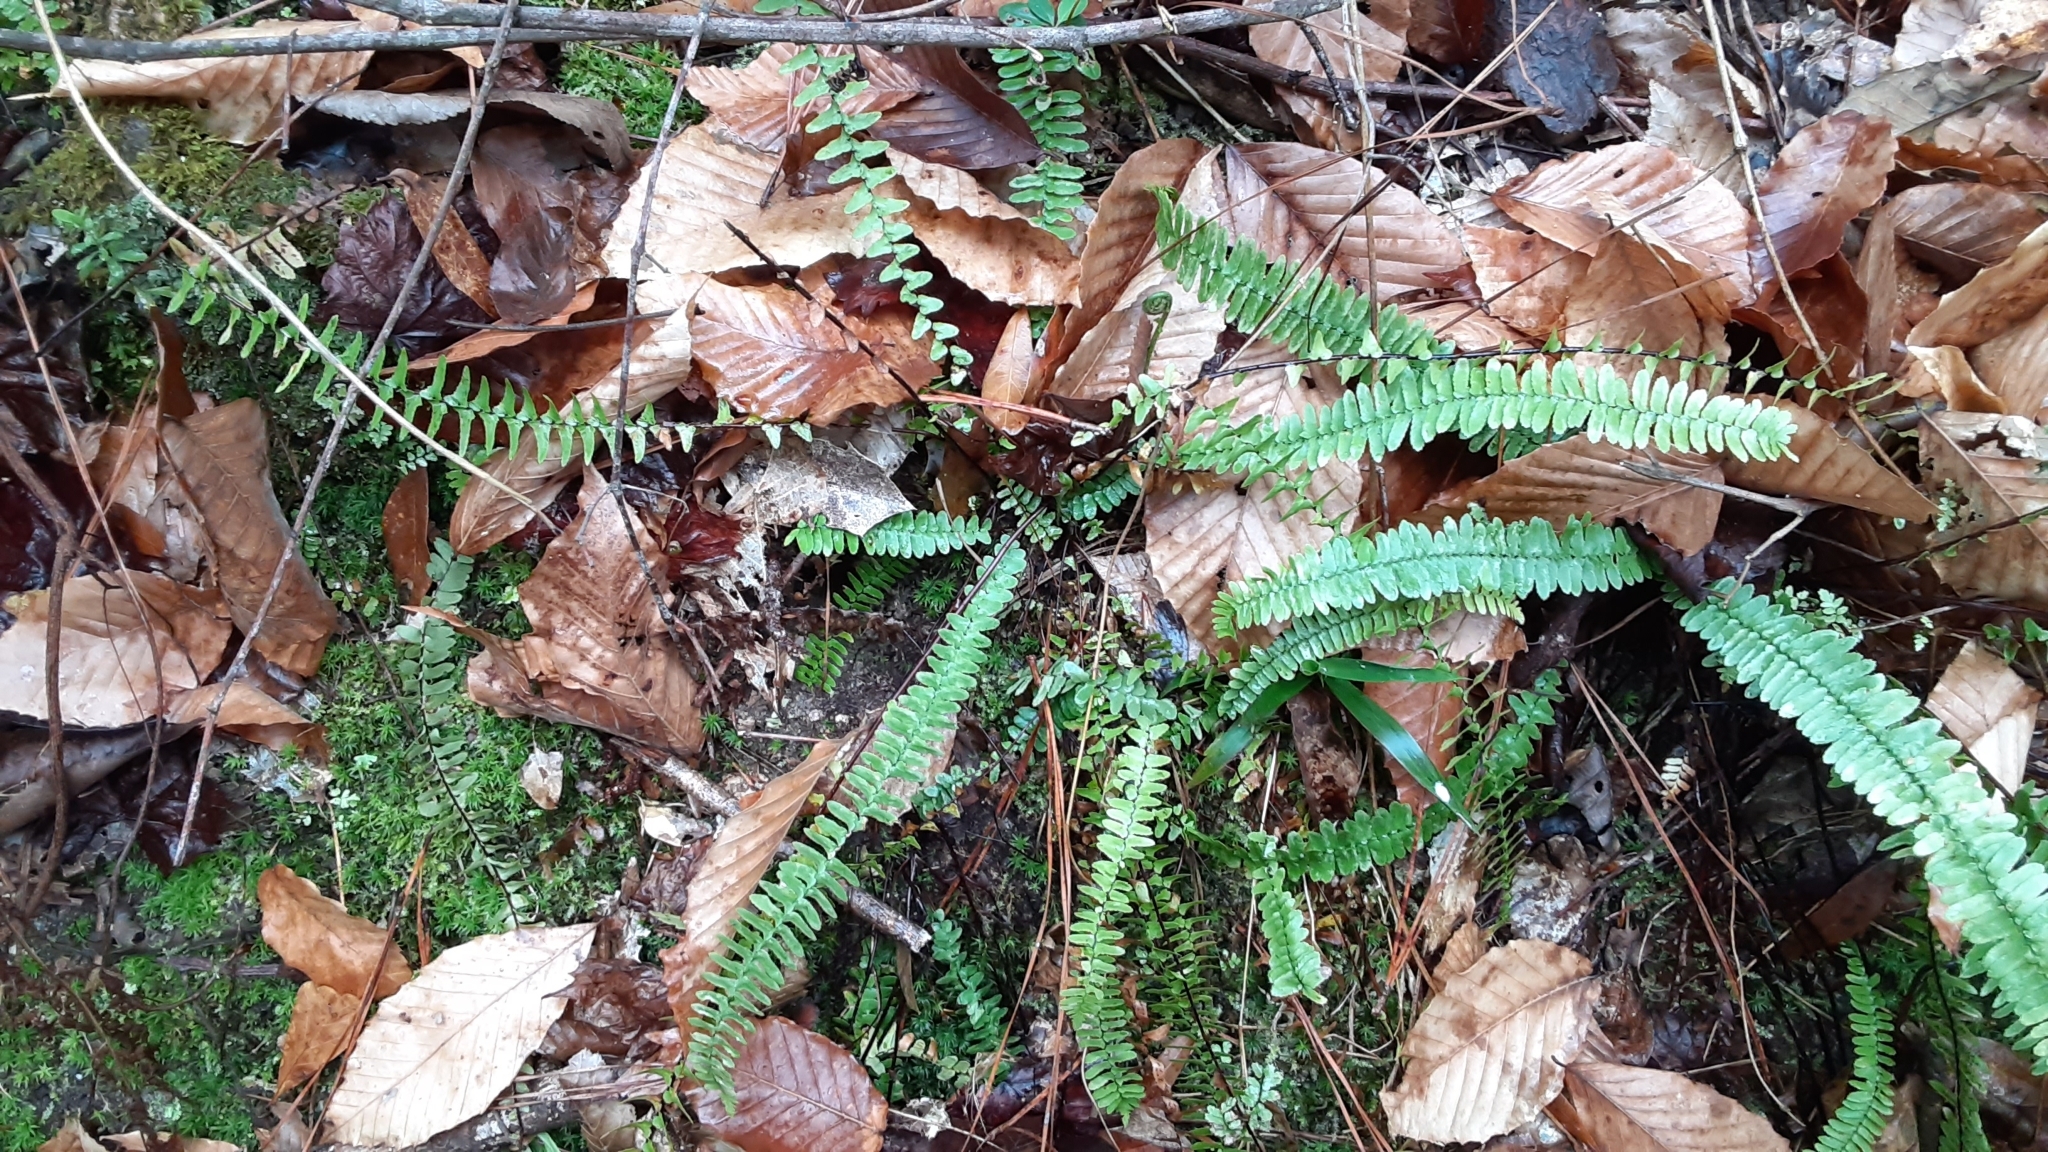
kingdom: Plantae
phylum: Tracheophyta
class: Polypodiopsida
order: Polypodiales
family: Aspleniaceae
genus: Asplenium
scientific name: Asplenium platyneuron
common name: Ebony spleenwort
